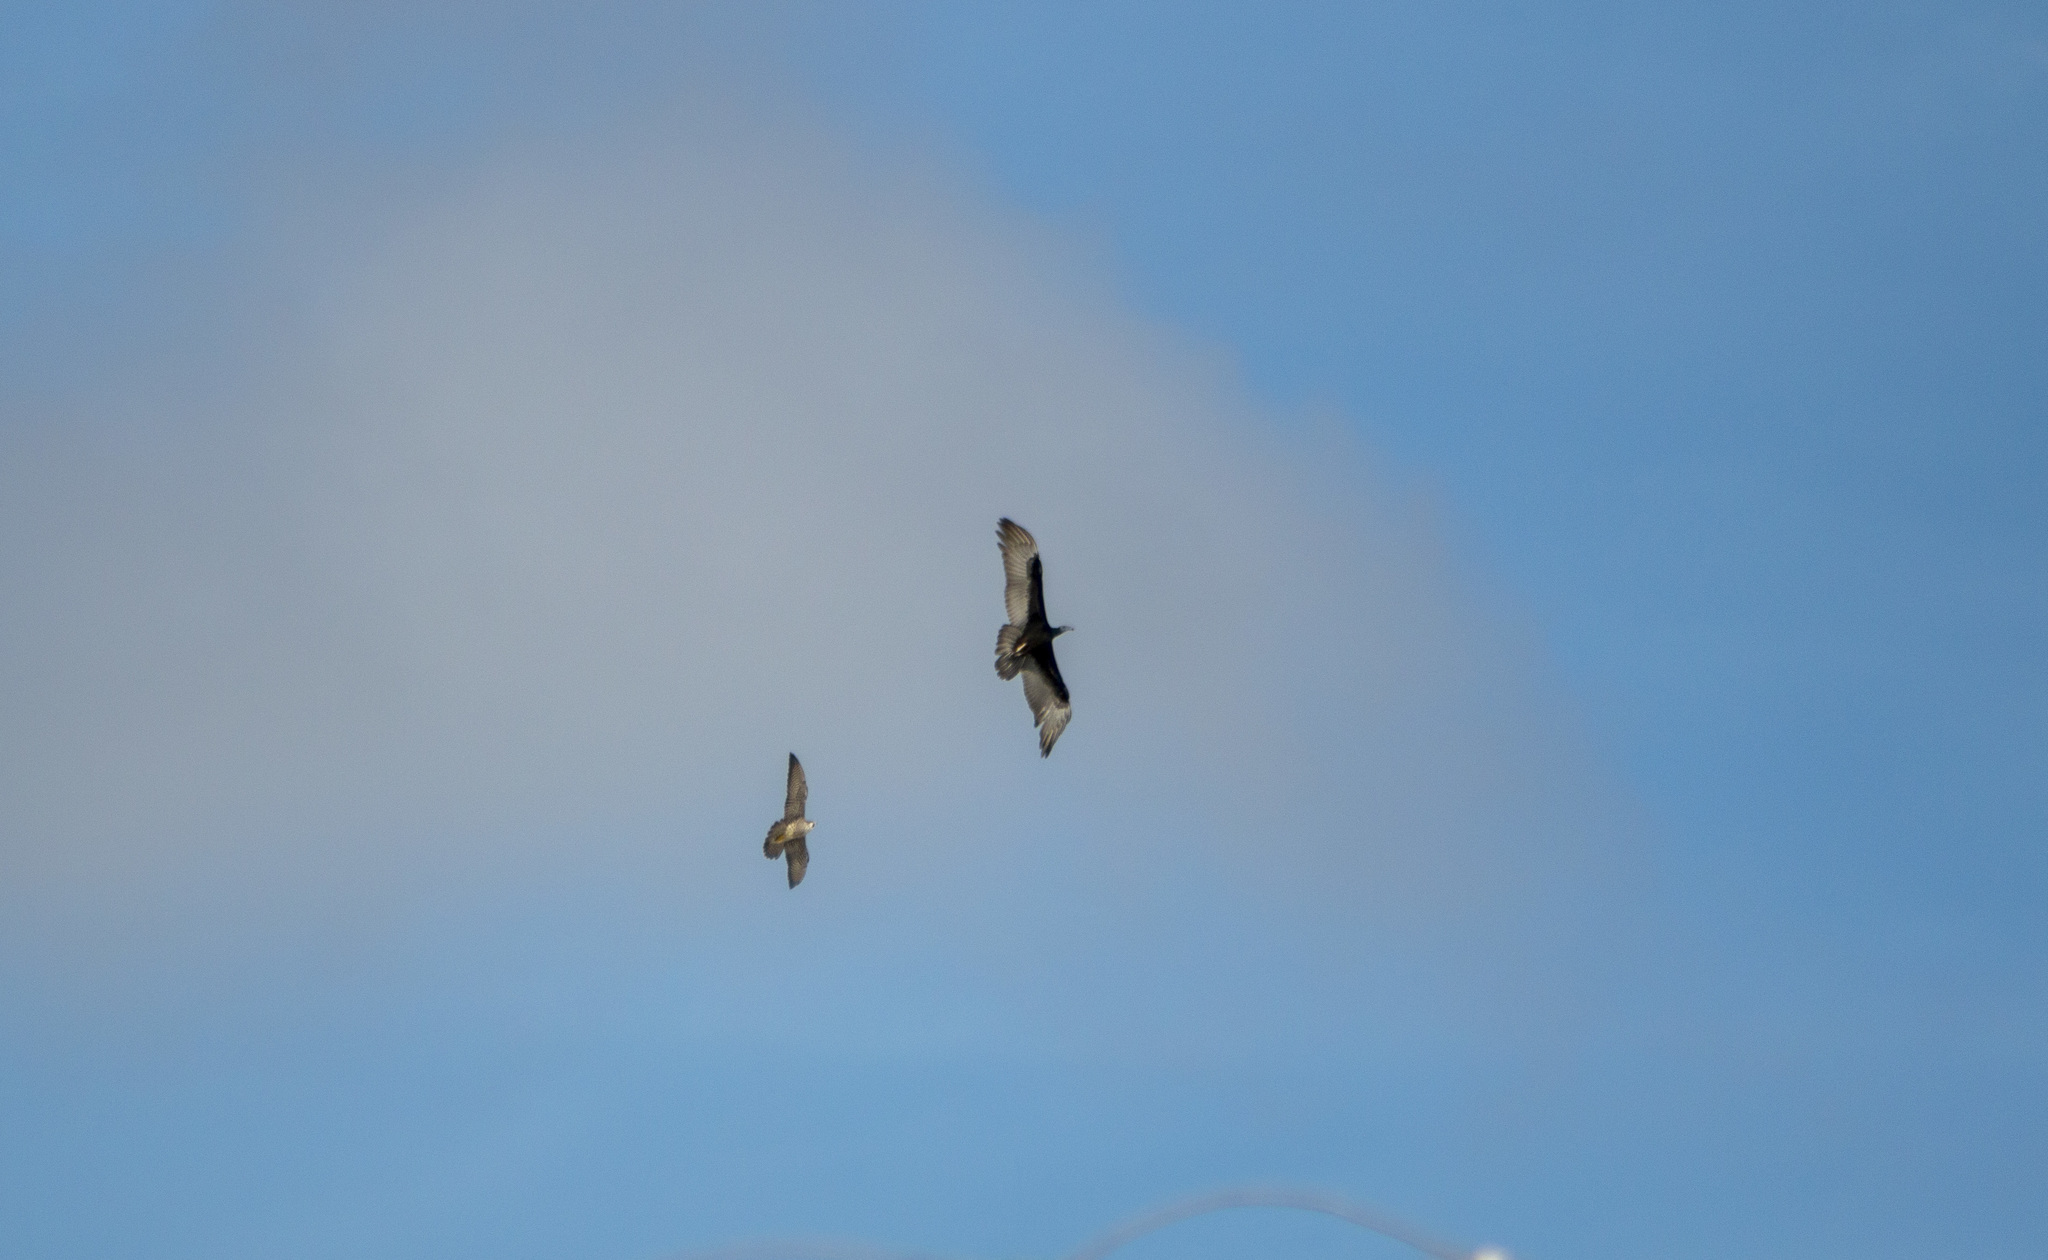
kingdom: Animalia
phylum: Chordata
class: Aves
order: Falconiformes
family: Falconidae
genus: Falco
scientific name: Falco peregrinus
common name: Peregrine falcon
